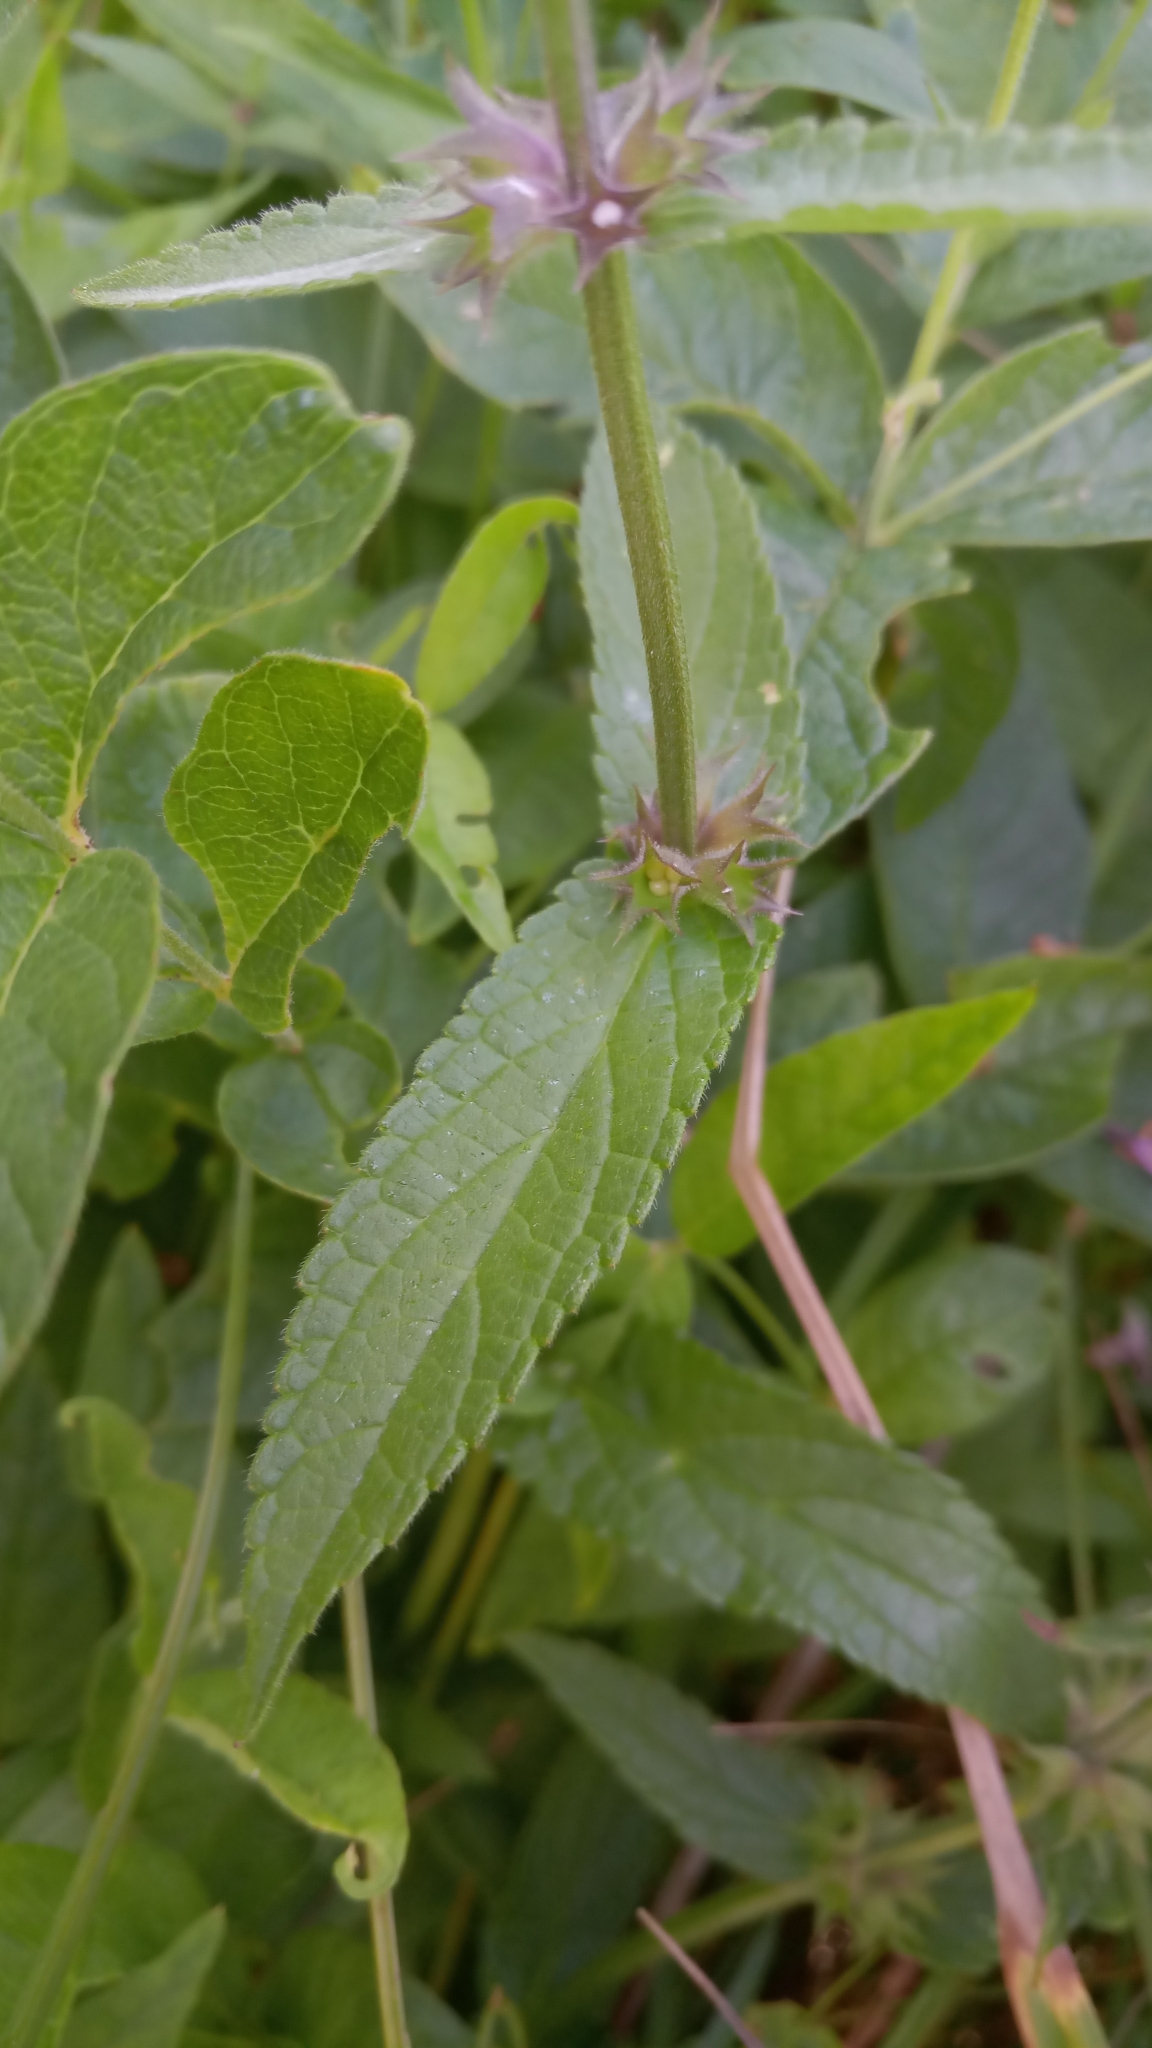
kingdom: Plantae
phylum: Tracheophyta
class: Magnoliopsida
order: Lamiales
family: Lamiaceae
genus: Stachys
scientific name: Stachys palustris
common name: Marsh woundwort
